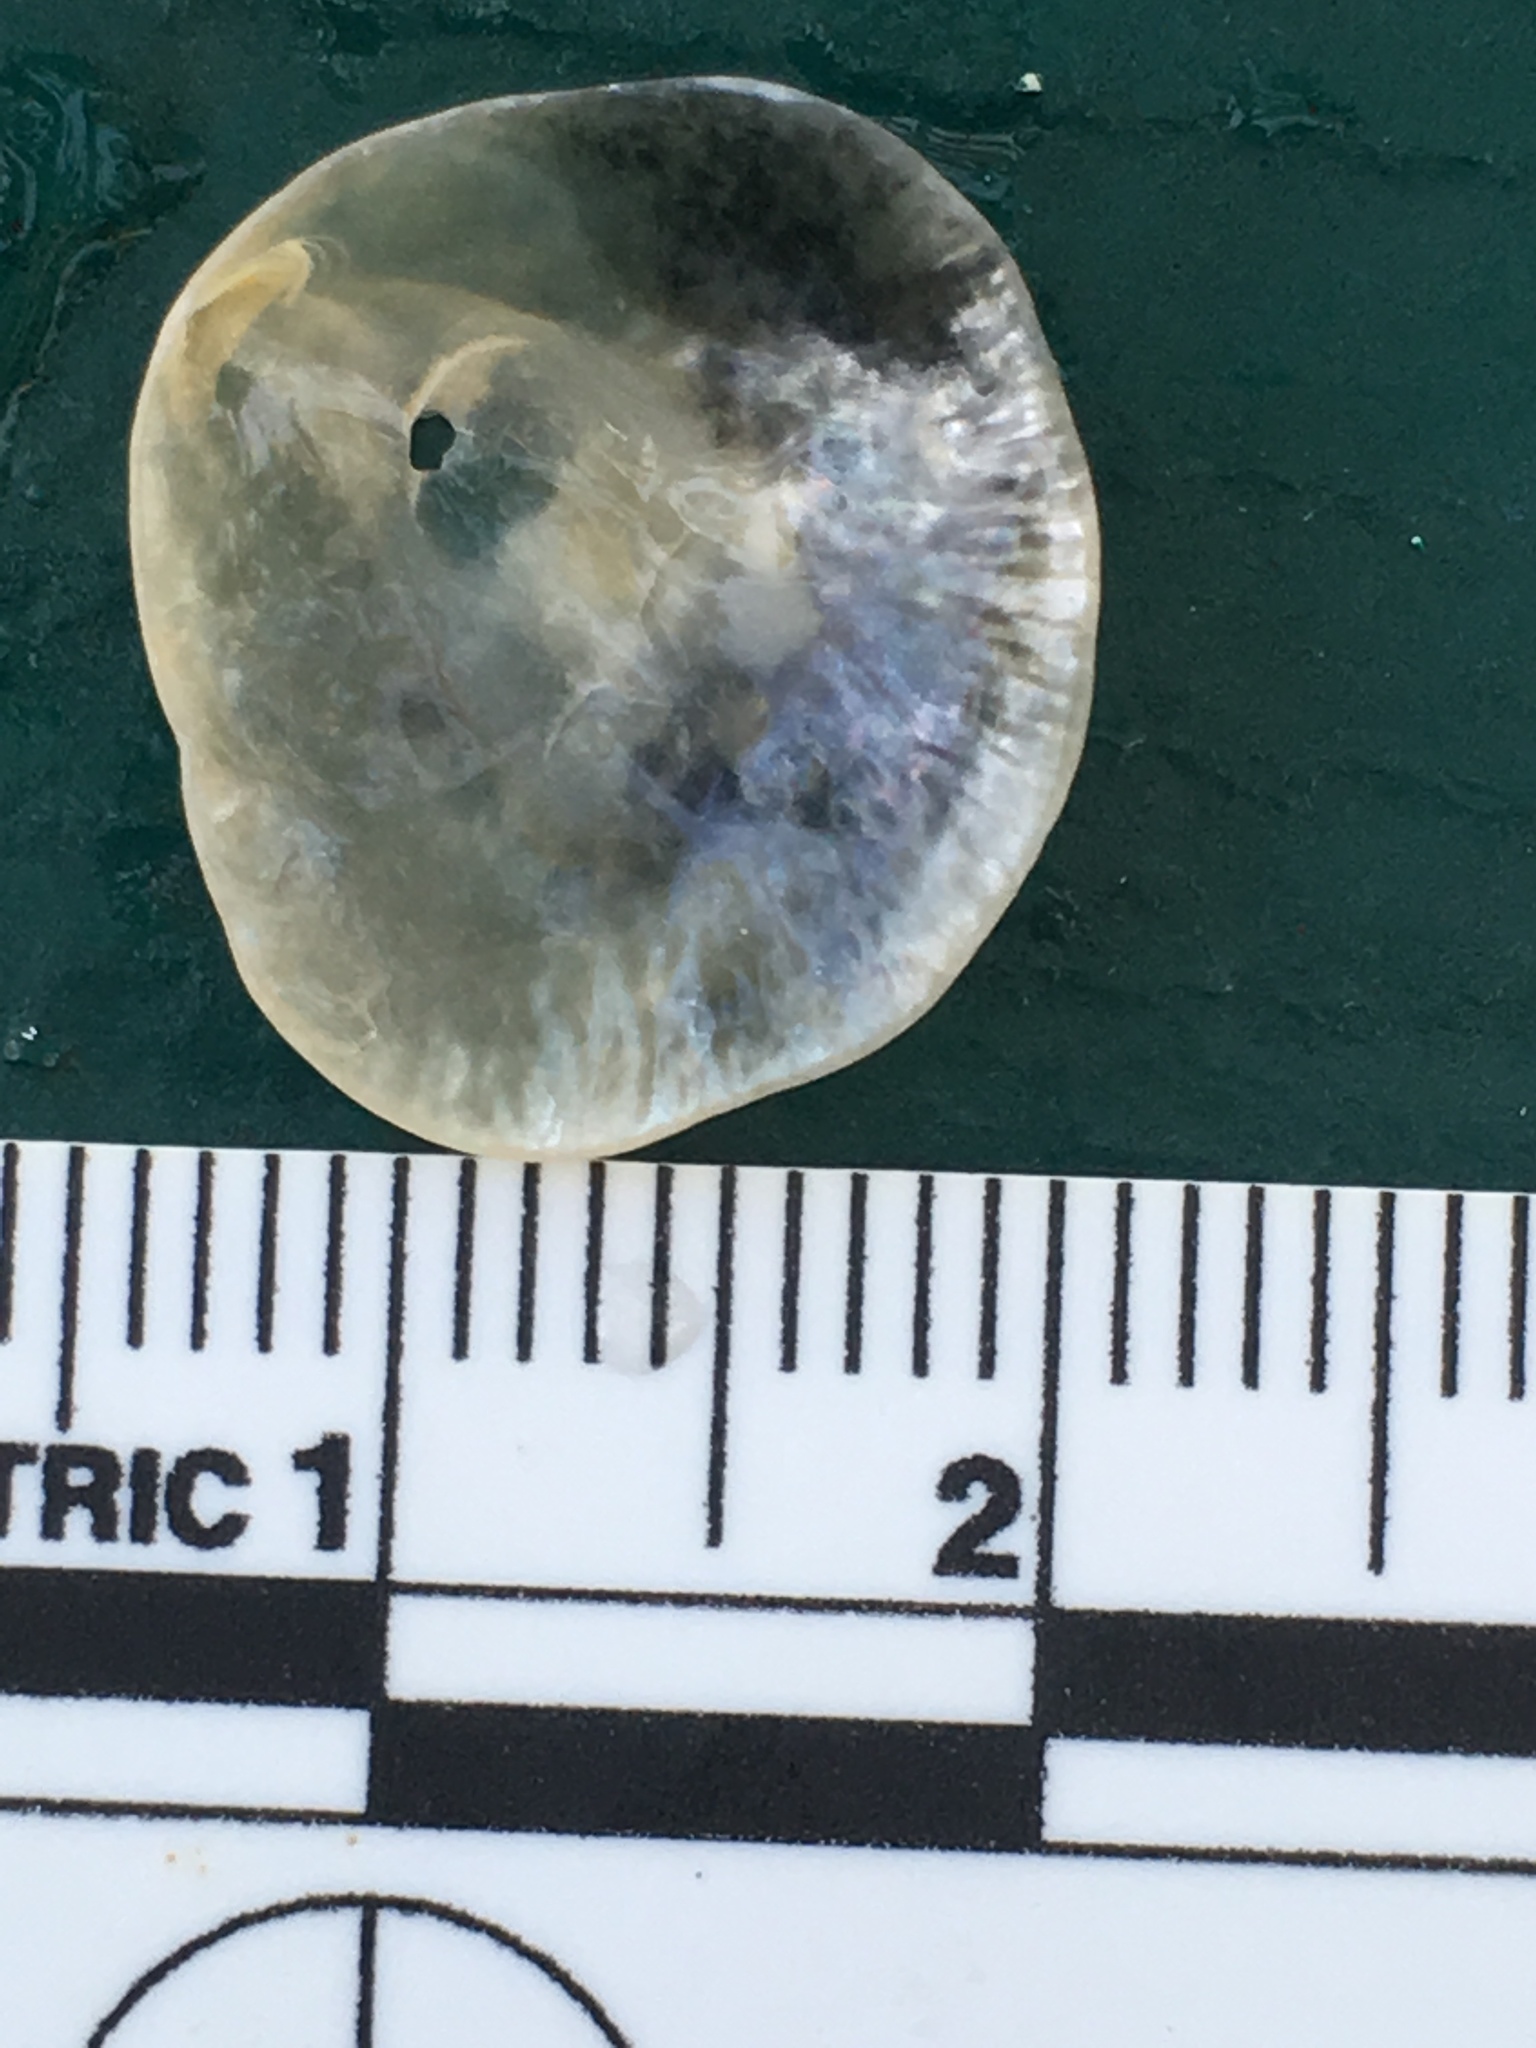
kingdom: Animalia
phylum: Mollusca
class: Bivalvia
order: Pectinida
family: Anomiidae
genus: Anomia
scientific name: Anomia simplex
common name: Common jingle shell
